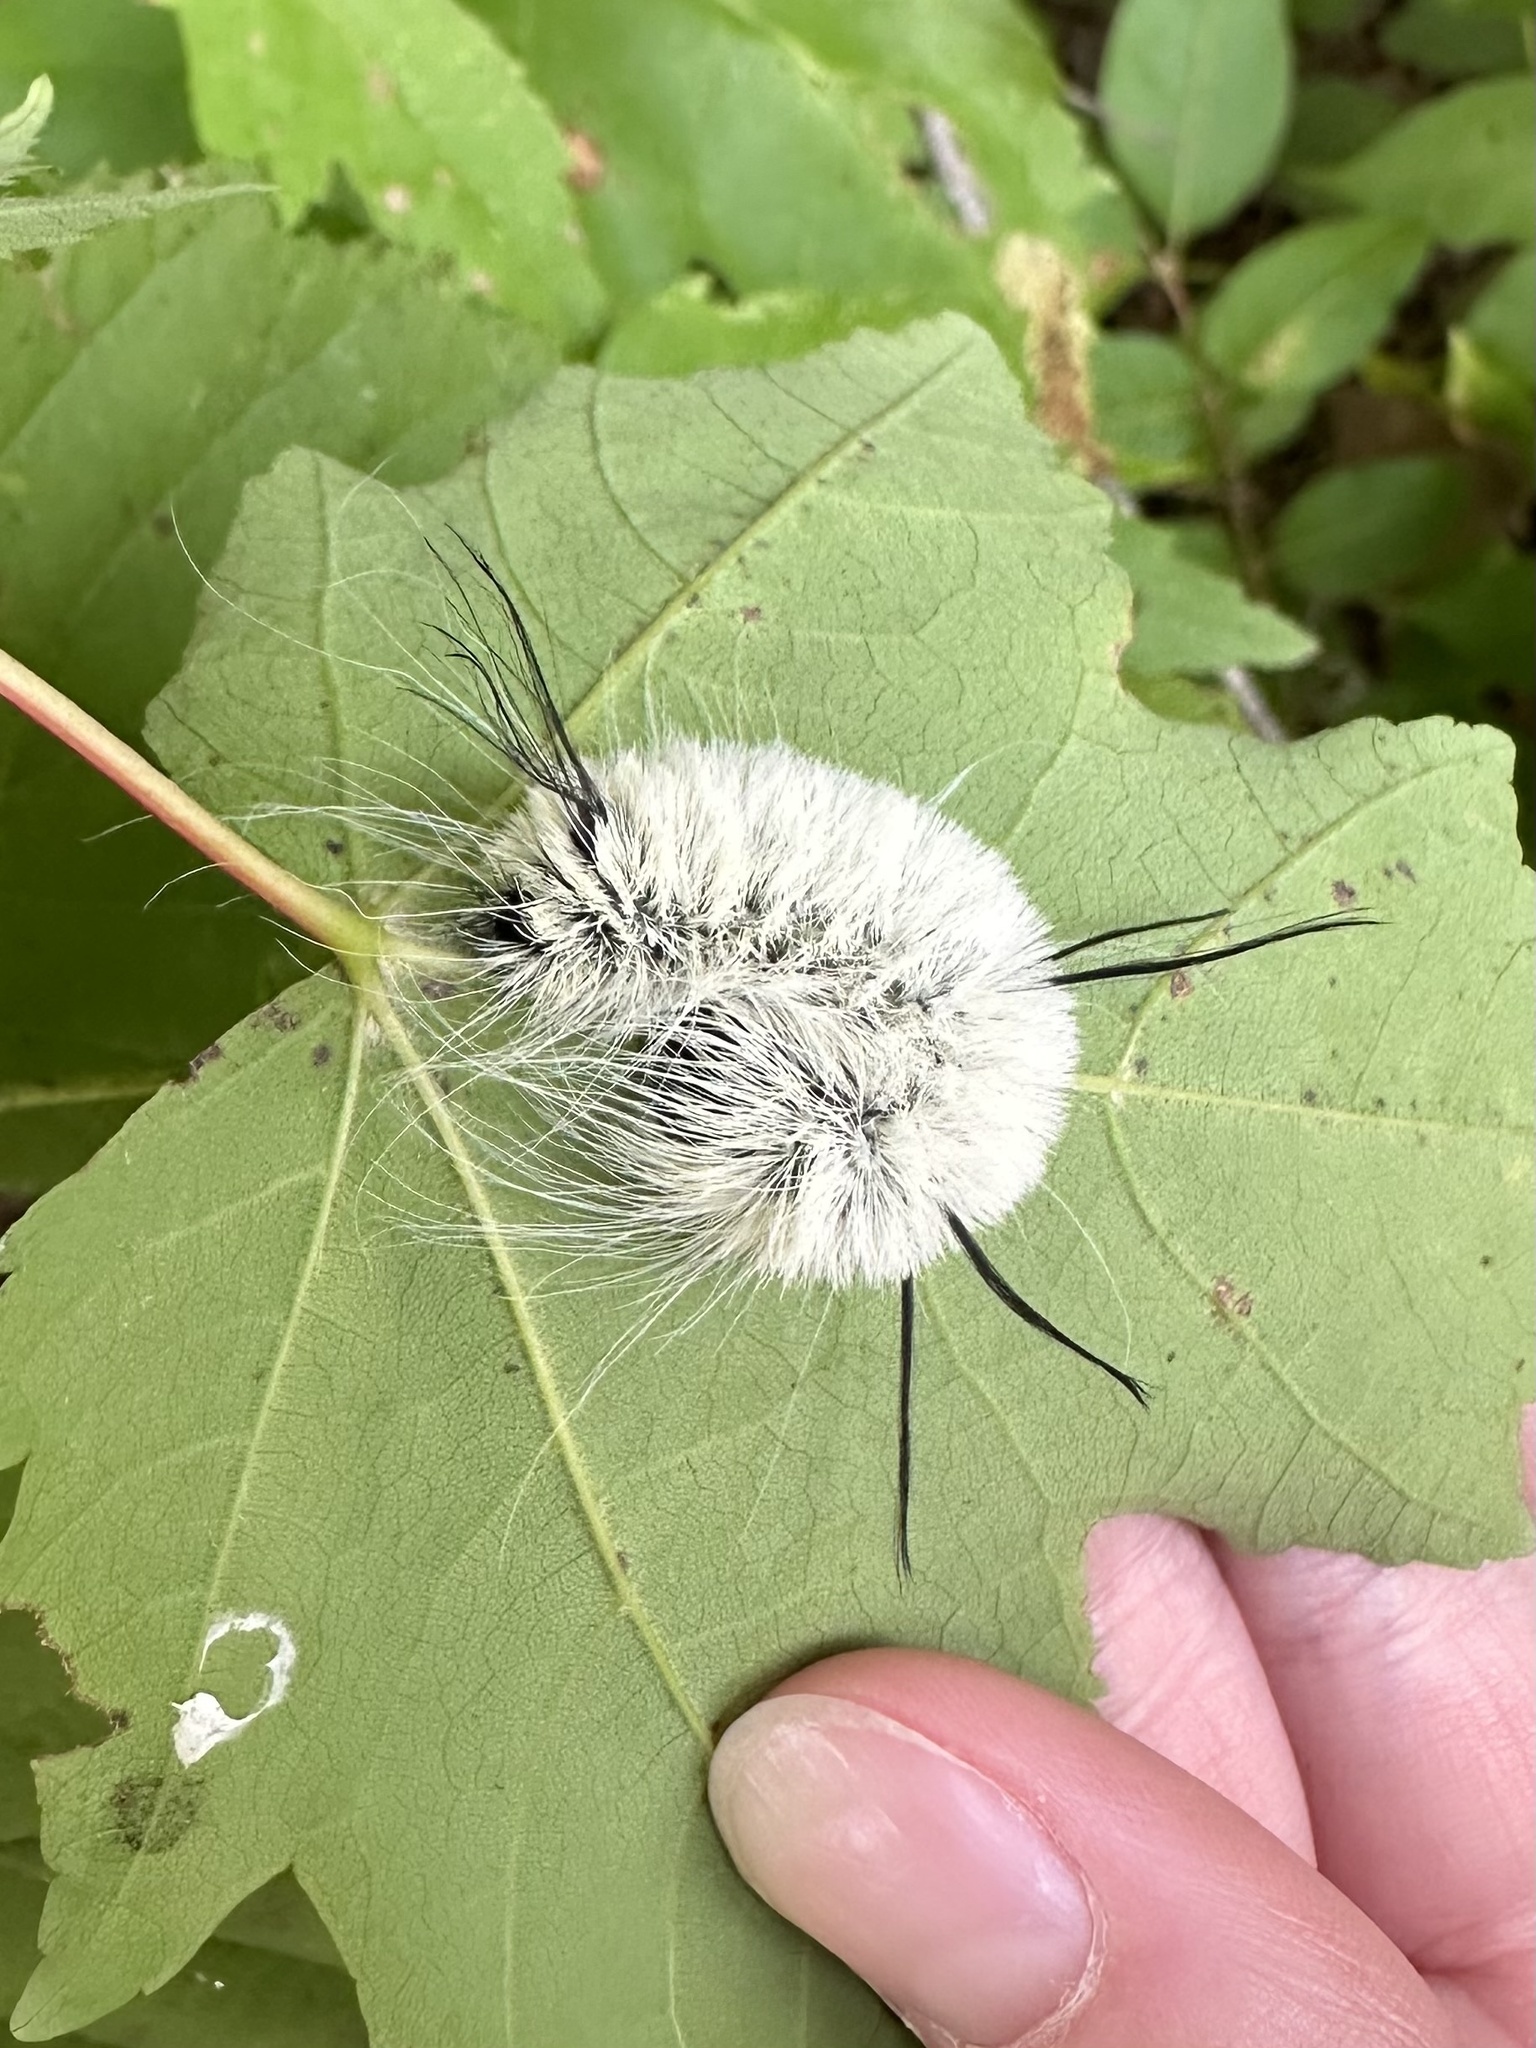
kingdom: Animalia
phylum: Arthropoda
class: Insecta
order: Lepidoptera
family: Noctuidae
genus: Acronicta
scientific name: Acronicta americana
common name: American dagger
